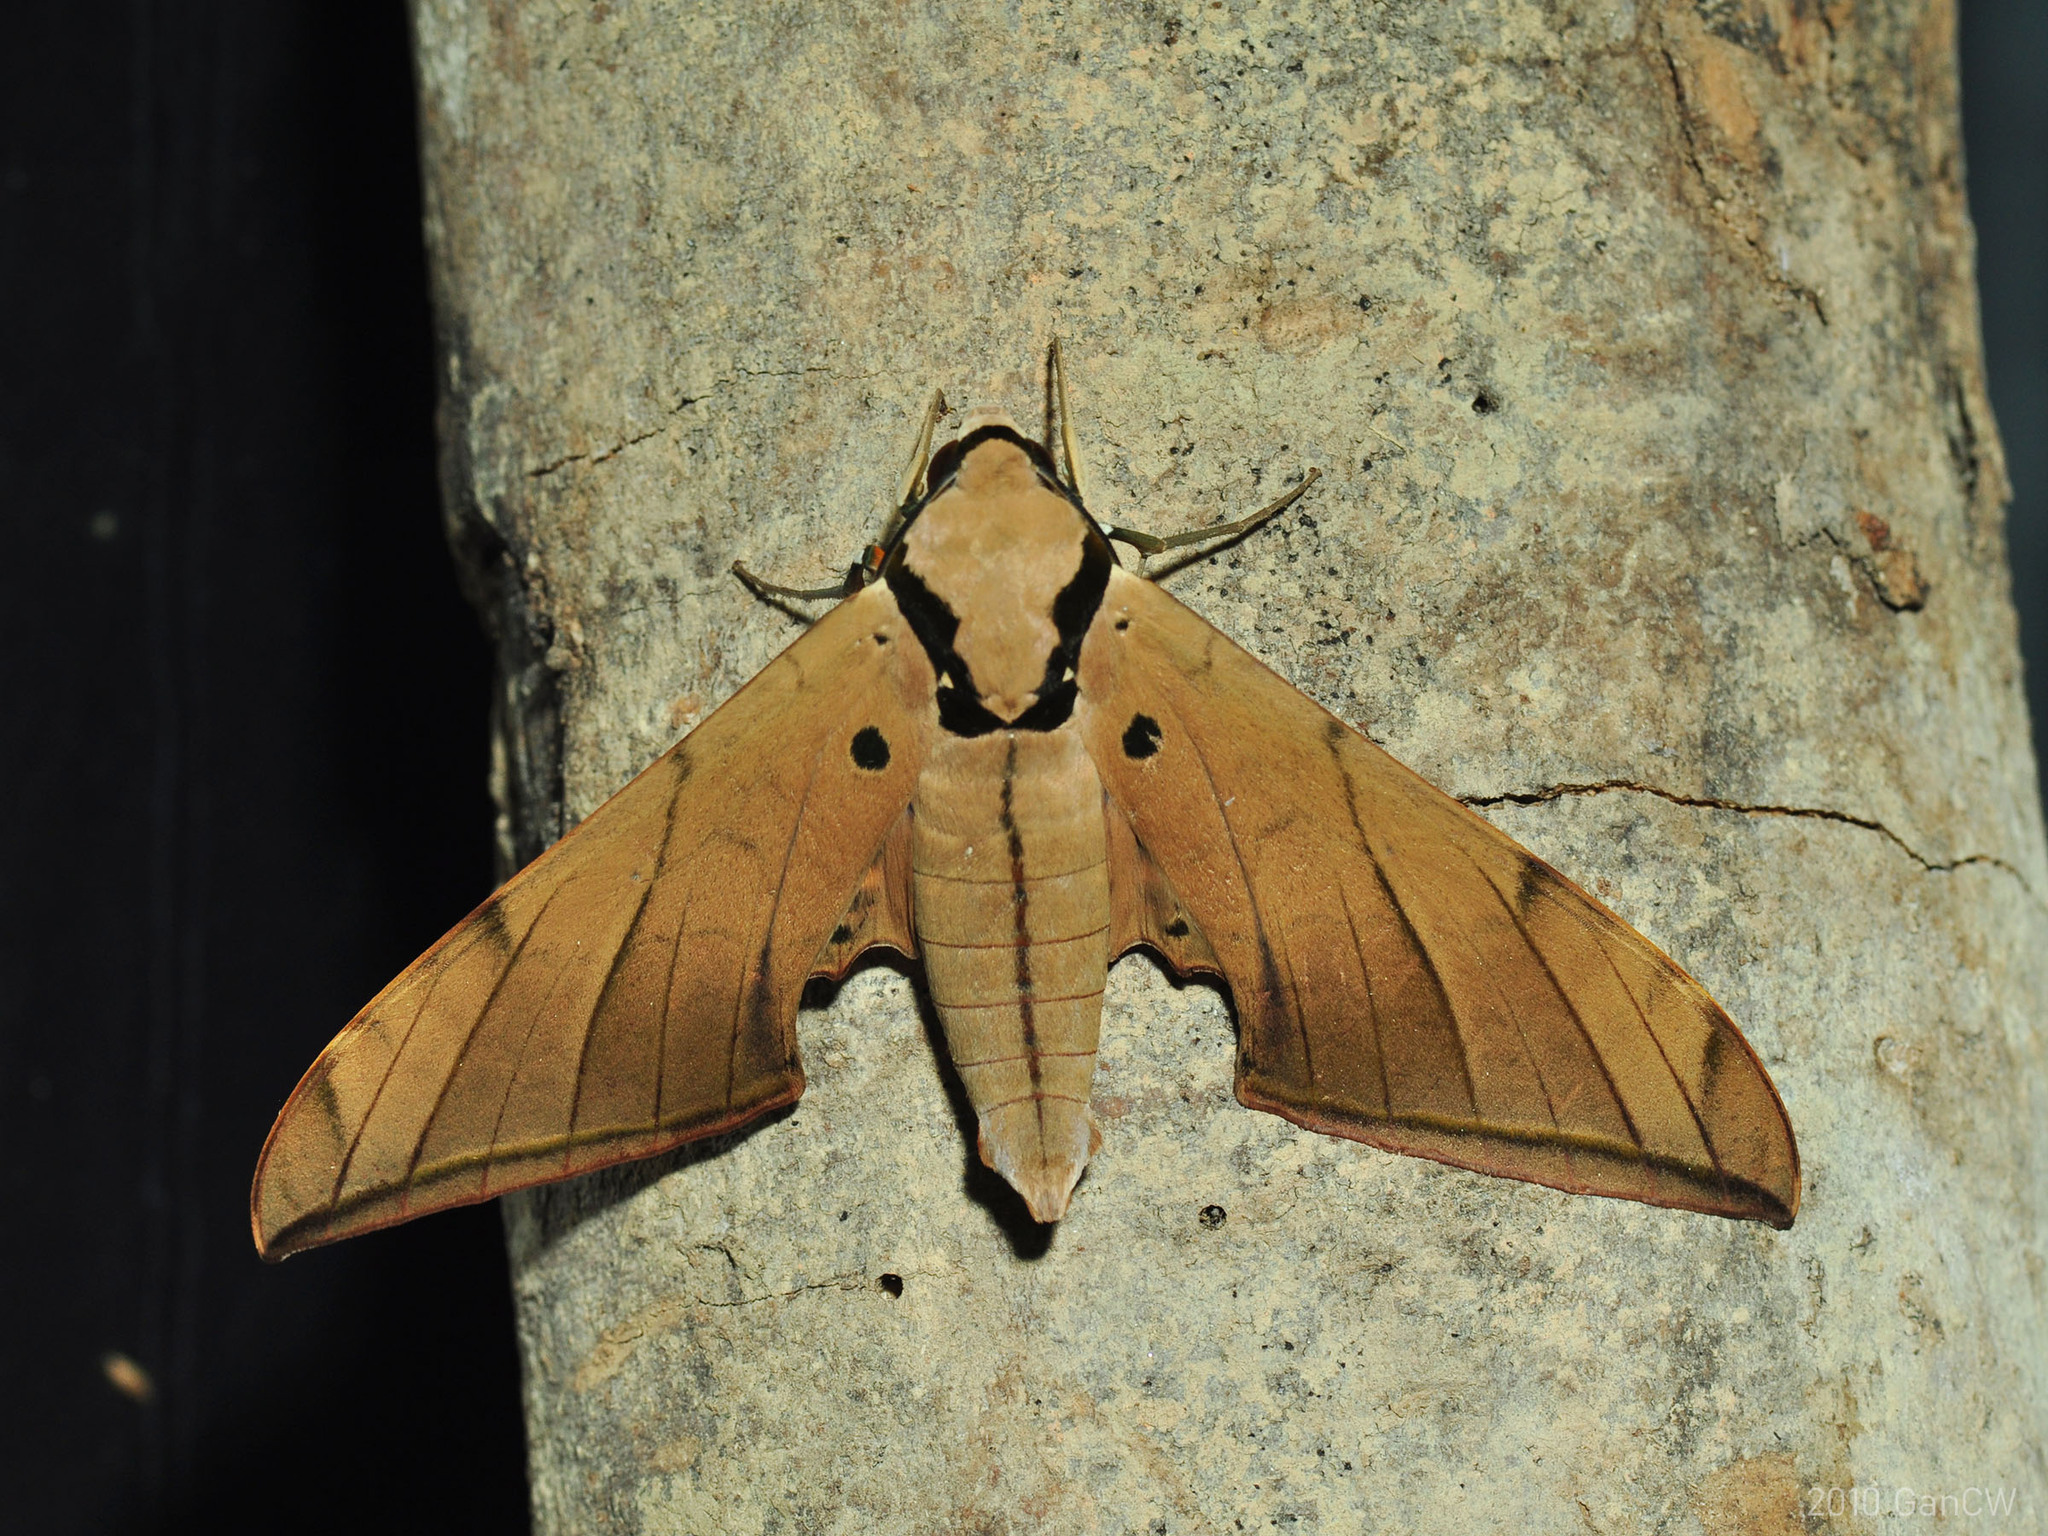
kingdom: Animalia
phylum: Arthropoda
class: Insecta
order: Lepidoptera
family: Sphingidae
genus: Ambulyx
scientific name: Ambulyx pryeri
